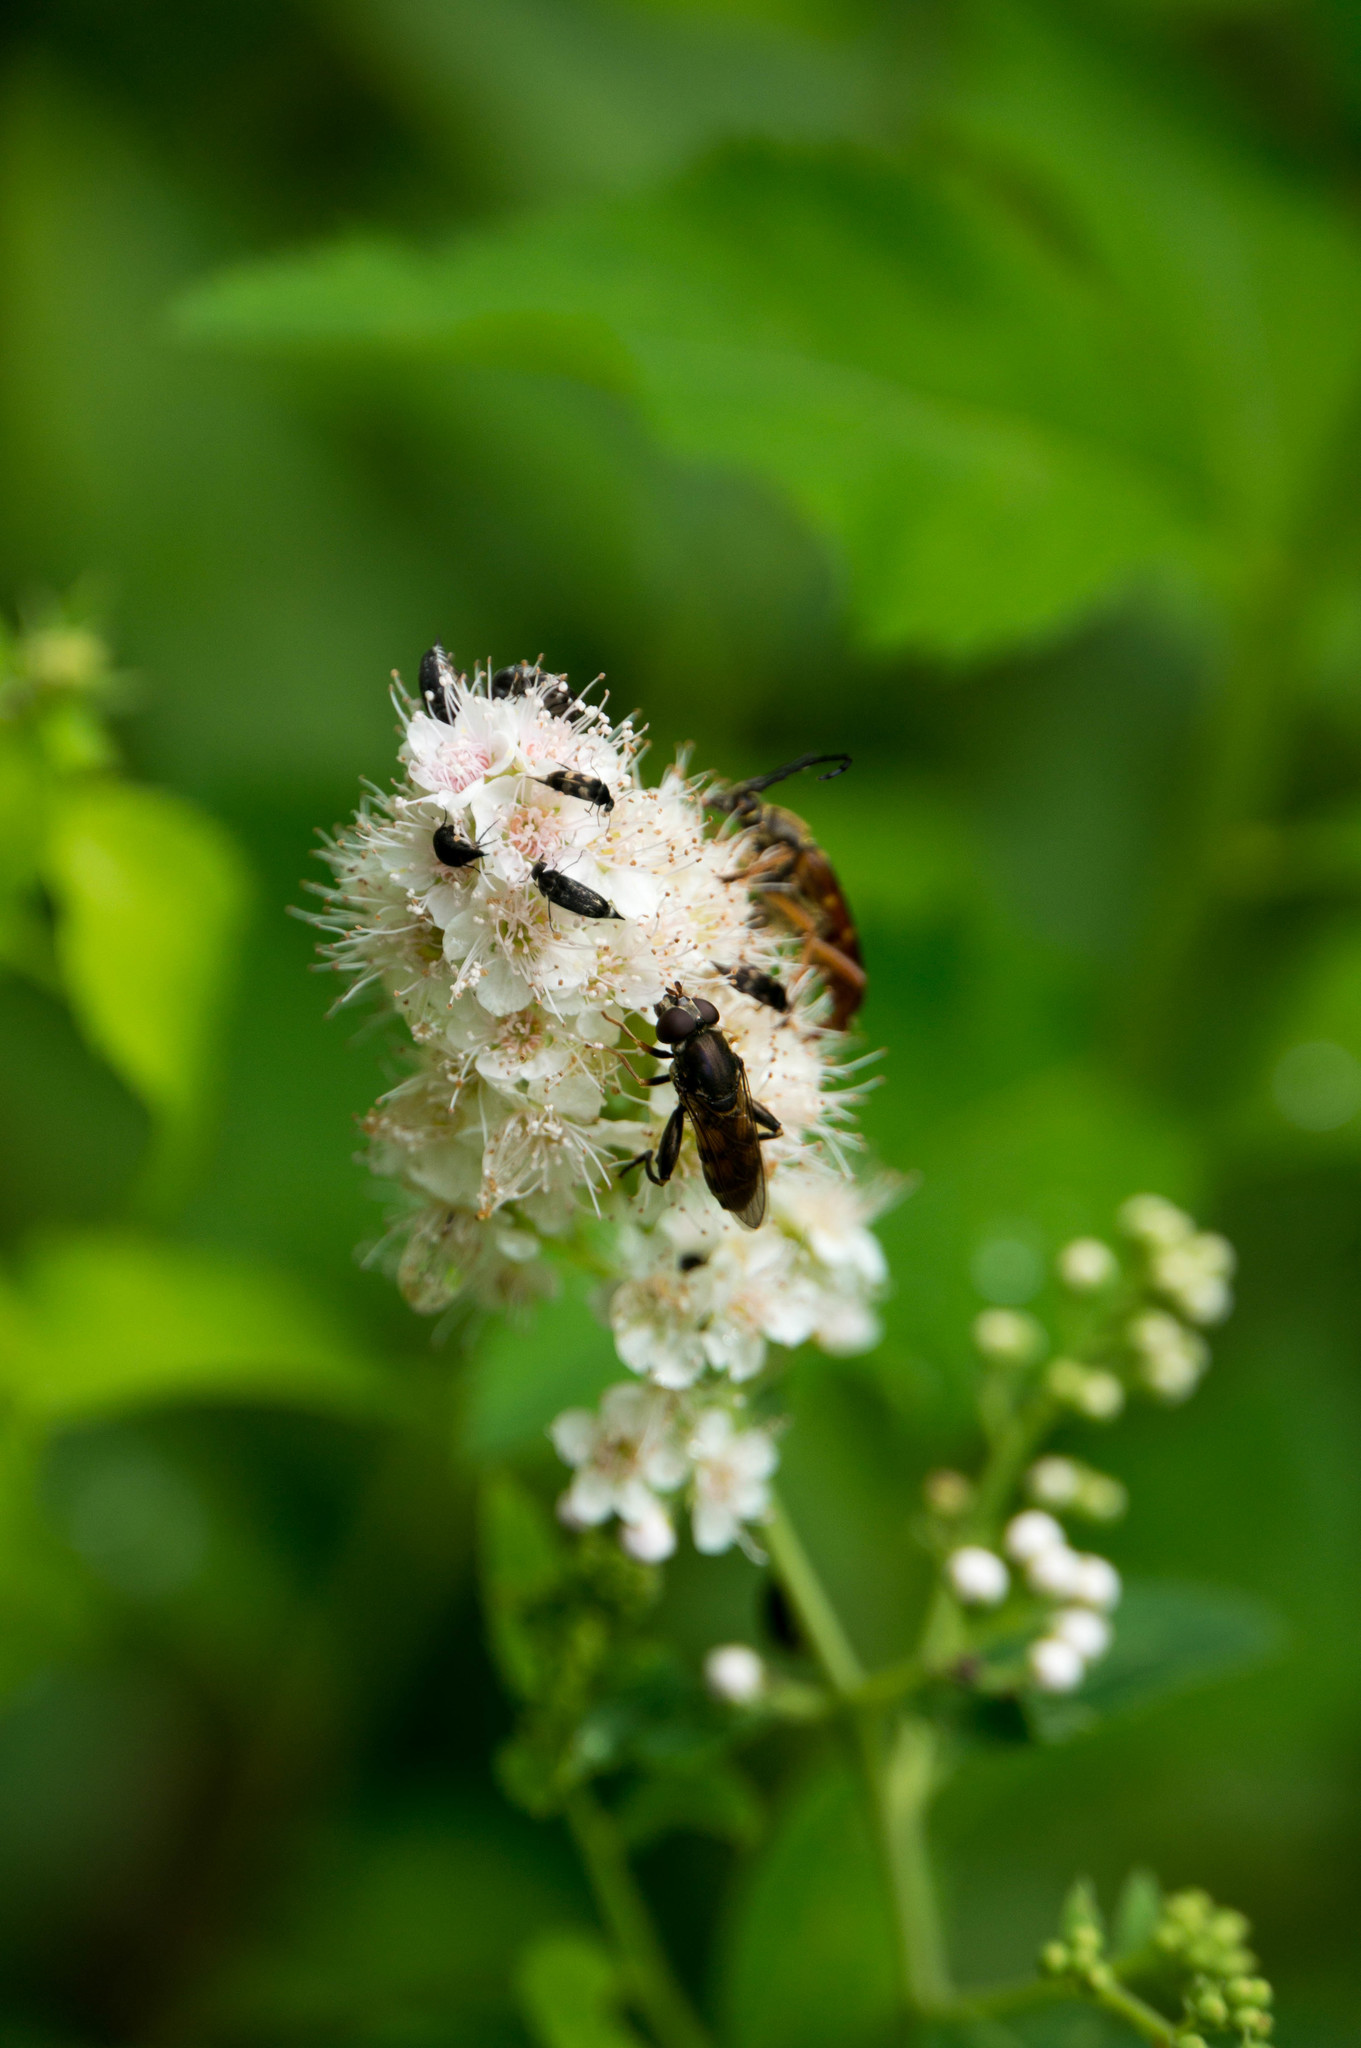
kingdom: Animalia
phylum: Arthropoda
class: Insecta
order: Diptera
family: Syrphidae
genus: Tropidia
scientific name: Tropidia quadrata
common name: Common thick-legged fly
